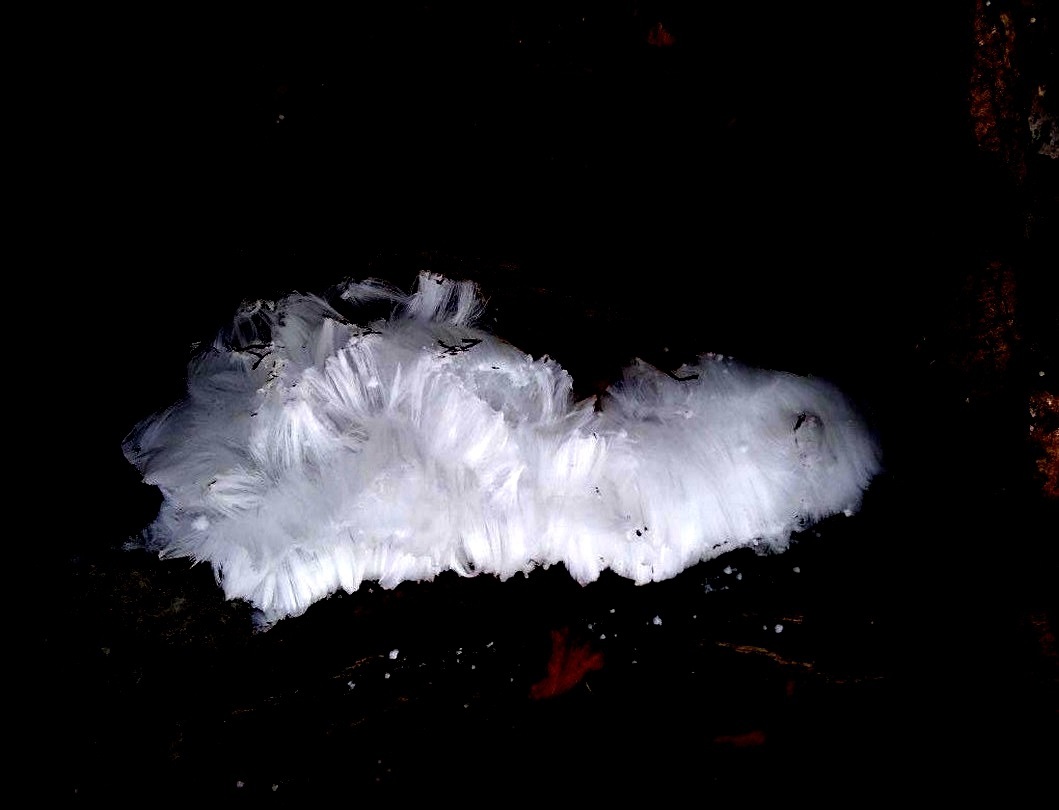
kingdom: Fungi
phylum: Basidiomycota
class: Agaricomycetes
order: Auriculariales
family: Auriculariaceae
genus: Exidiopsis
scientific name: Exidiopsis effusa
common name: Hair ice crust
